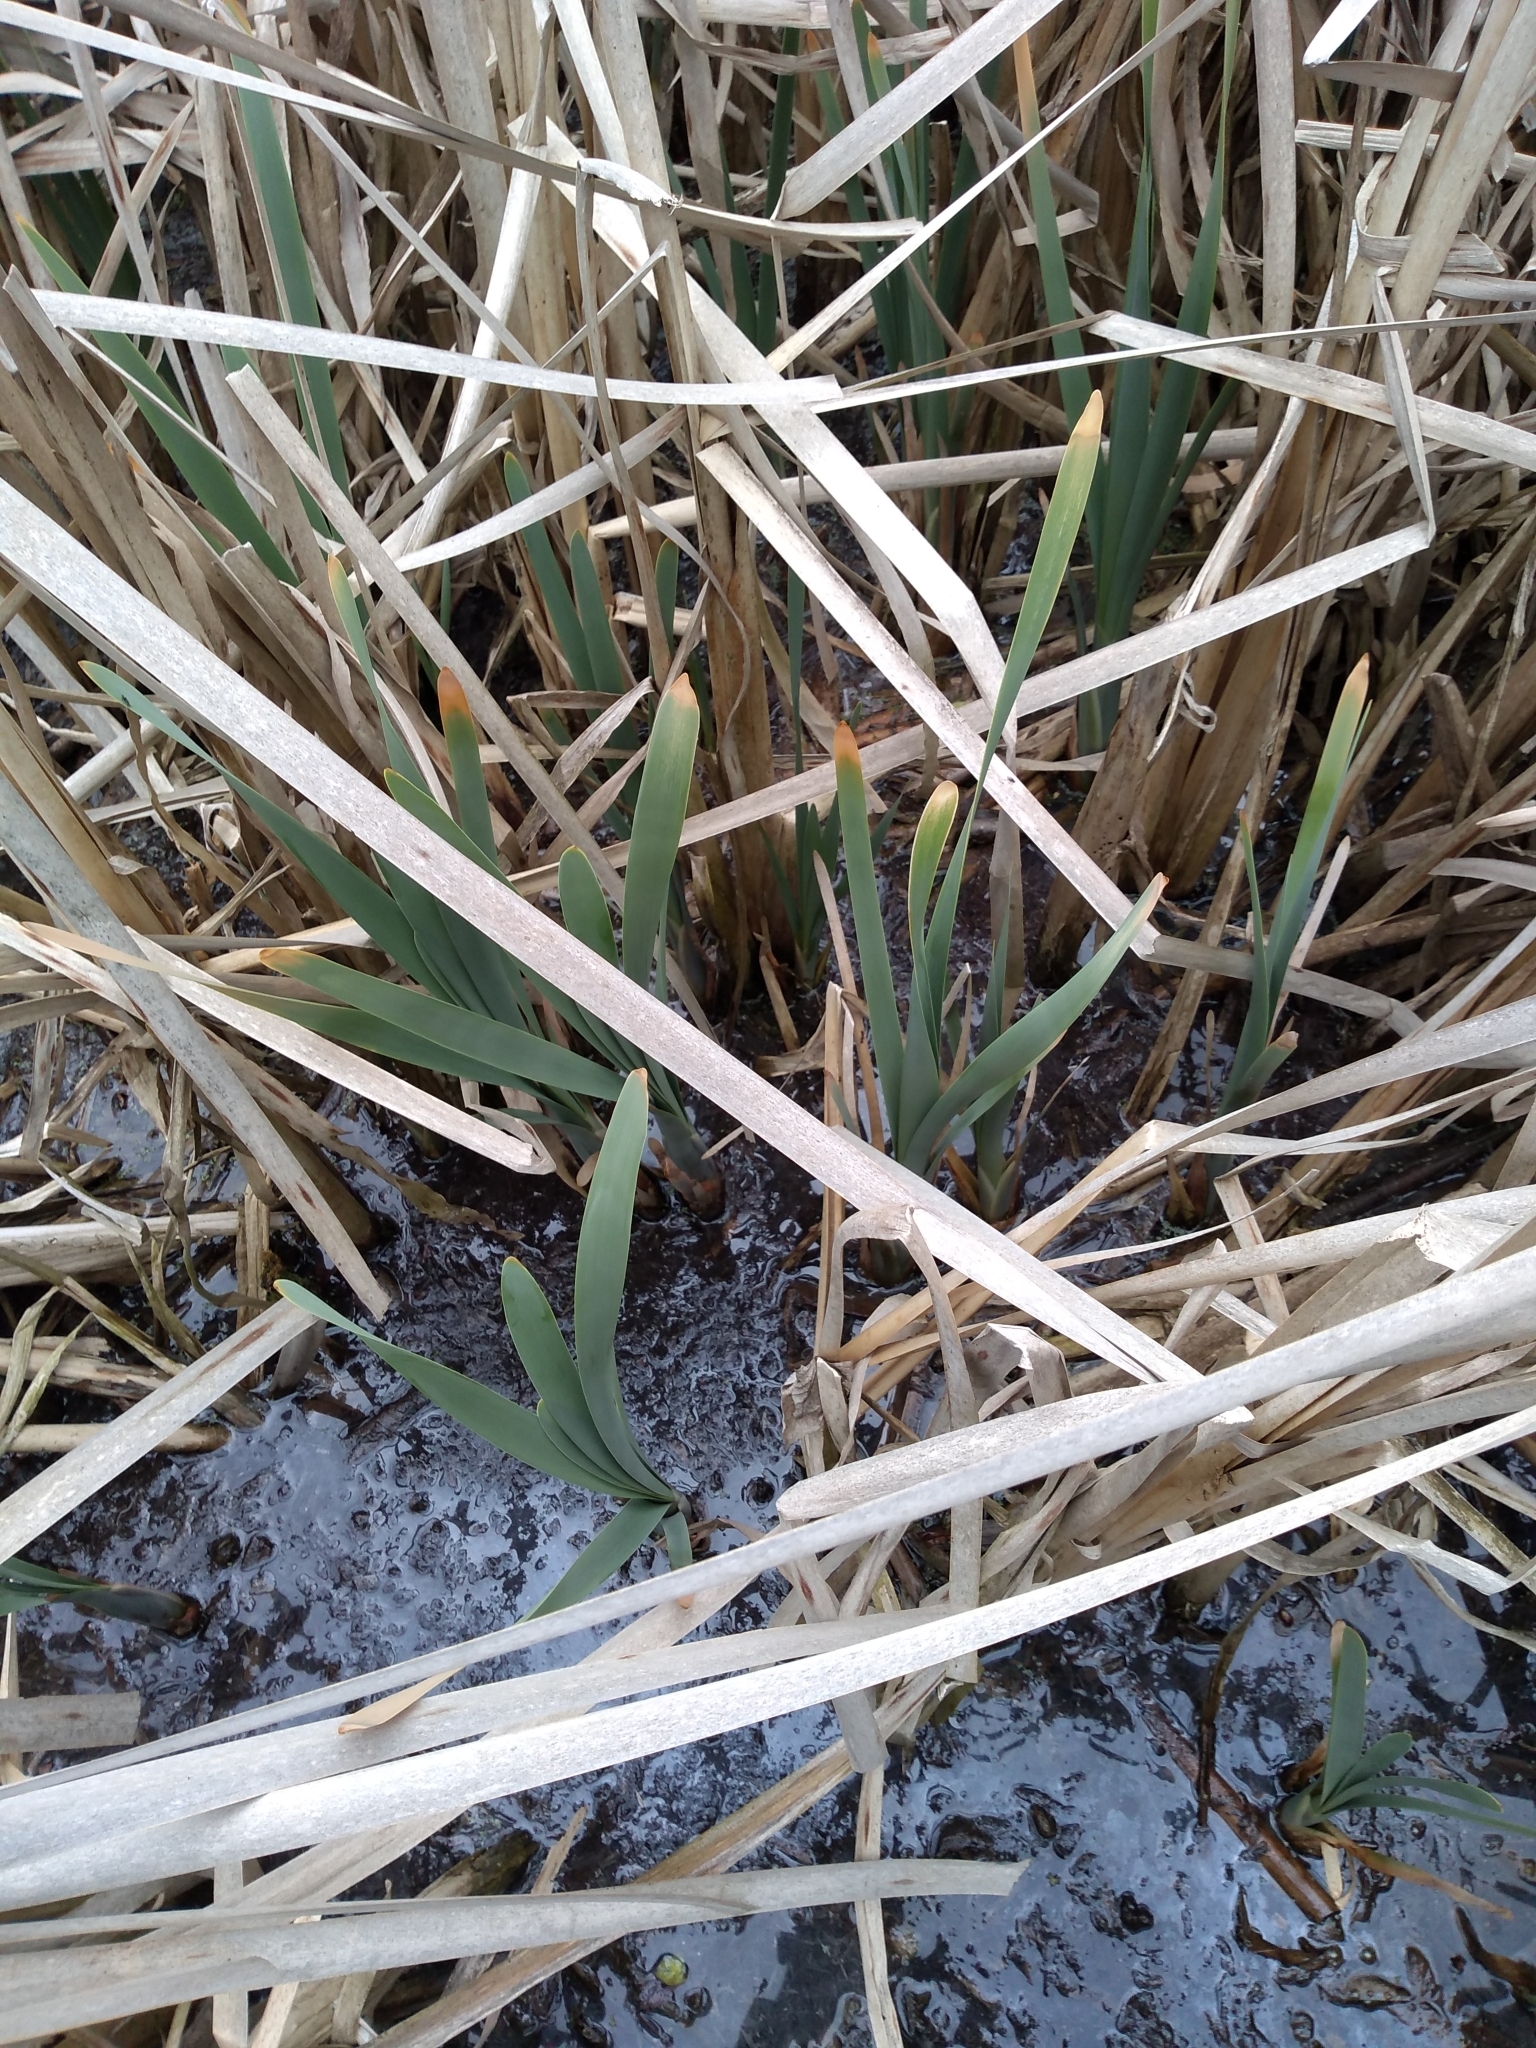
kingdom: Plantae
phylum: Tracheophyta
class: Liliopsida
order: Poales
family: Typhaceae
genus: Typha
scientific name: Typha latifolia
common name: Broadleaf cattail
